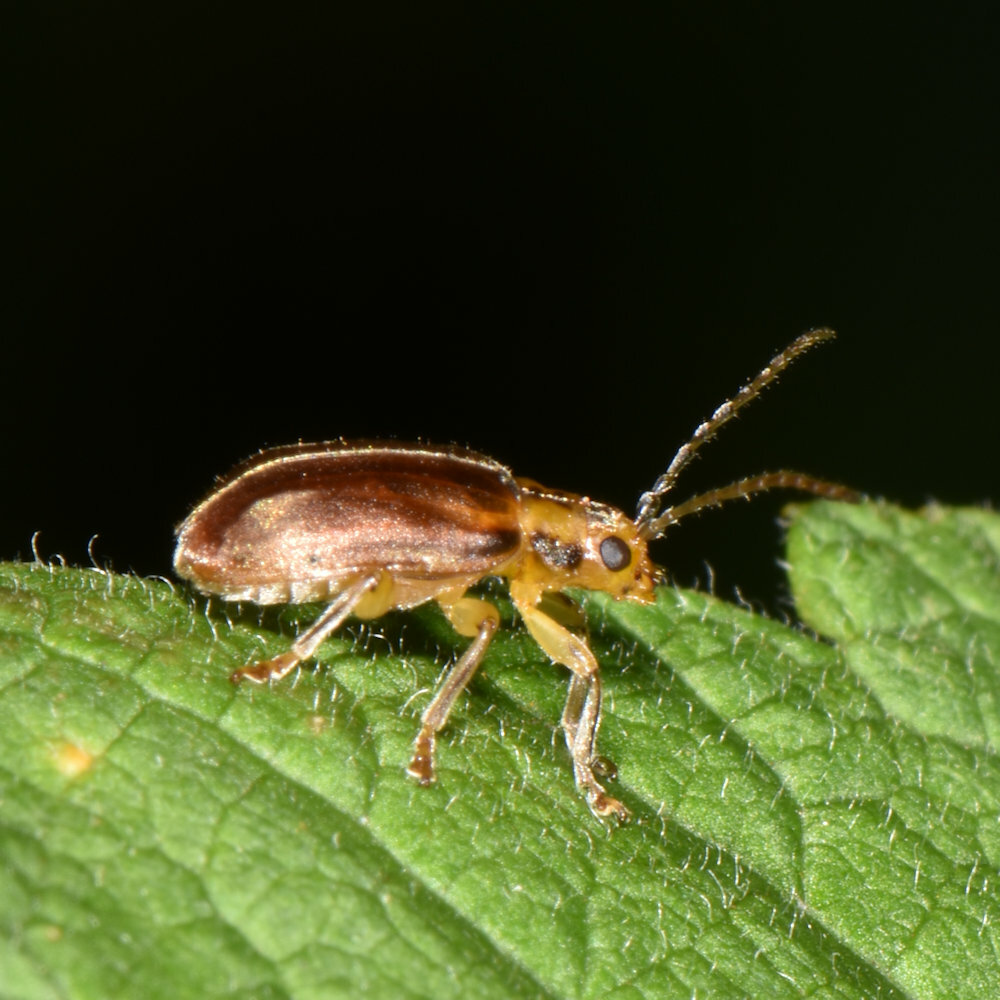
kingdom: Animalia
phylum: Arthropoda
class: Insecta
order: Coleoptera
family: Chrysomelidae
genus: Pyrrhalta
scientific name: Pyrrhalta viburni
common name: Guelder-rose leaf beetle
